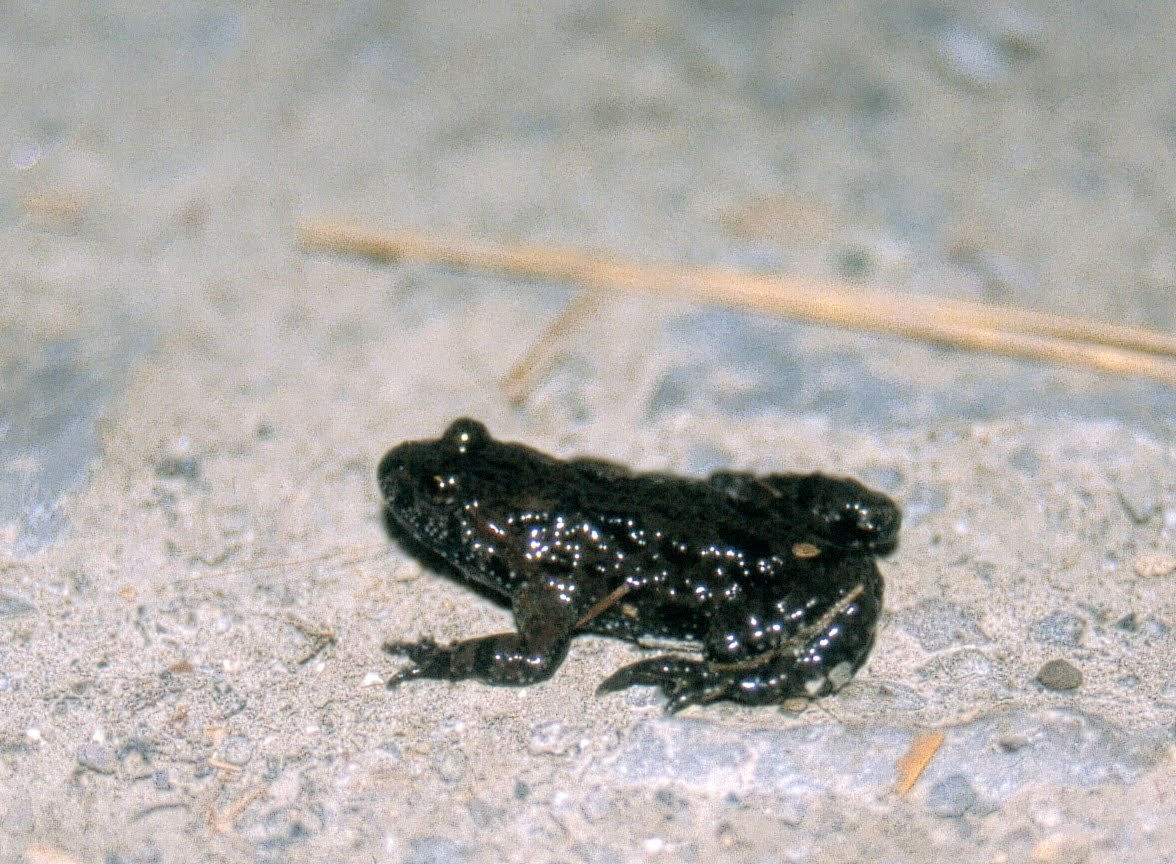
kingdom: Animalia
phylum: Chordata
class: Amphibia
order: Anura
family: Bombinatoridae
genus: Bombina
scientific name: Bombina bombina
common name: Fire-bellied toad
